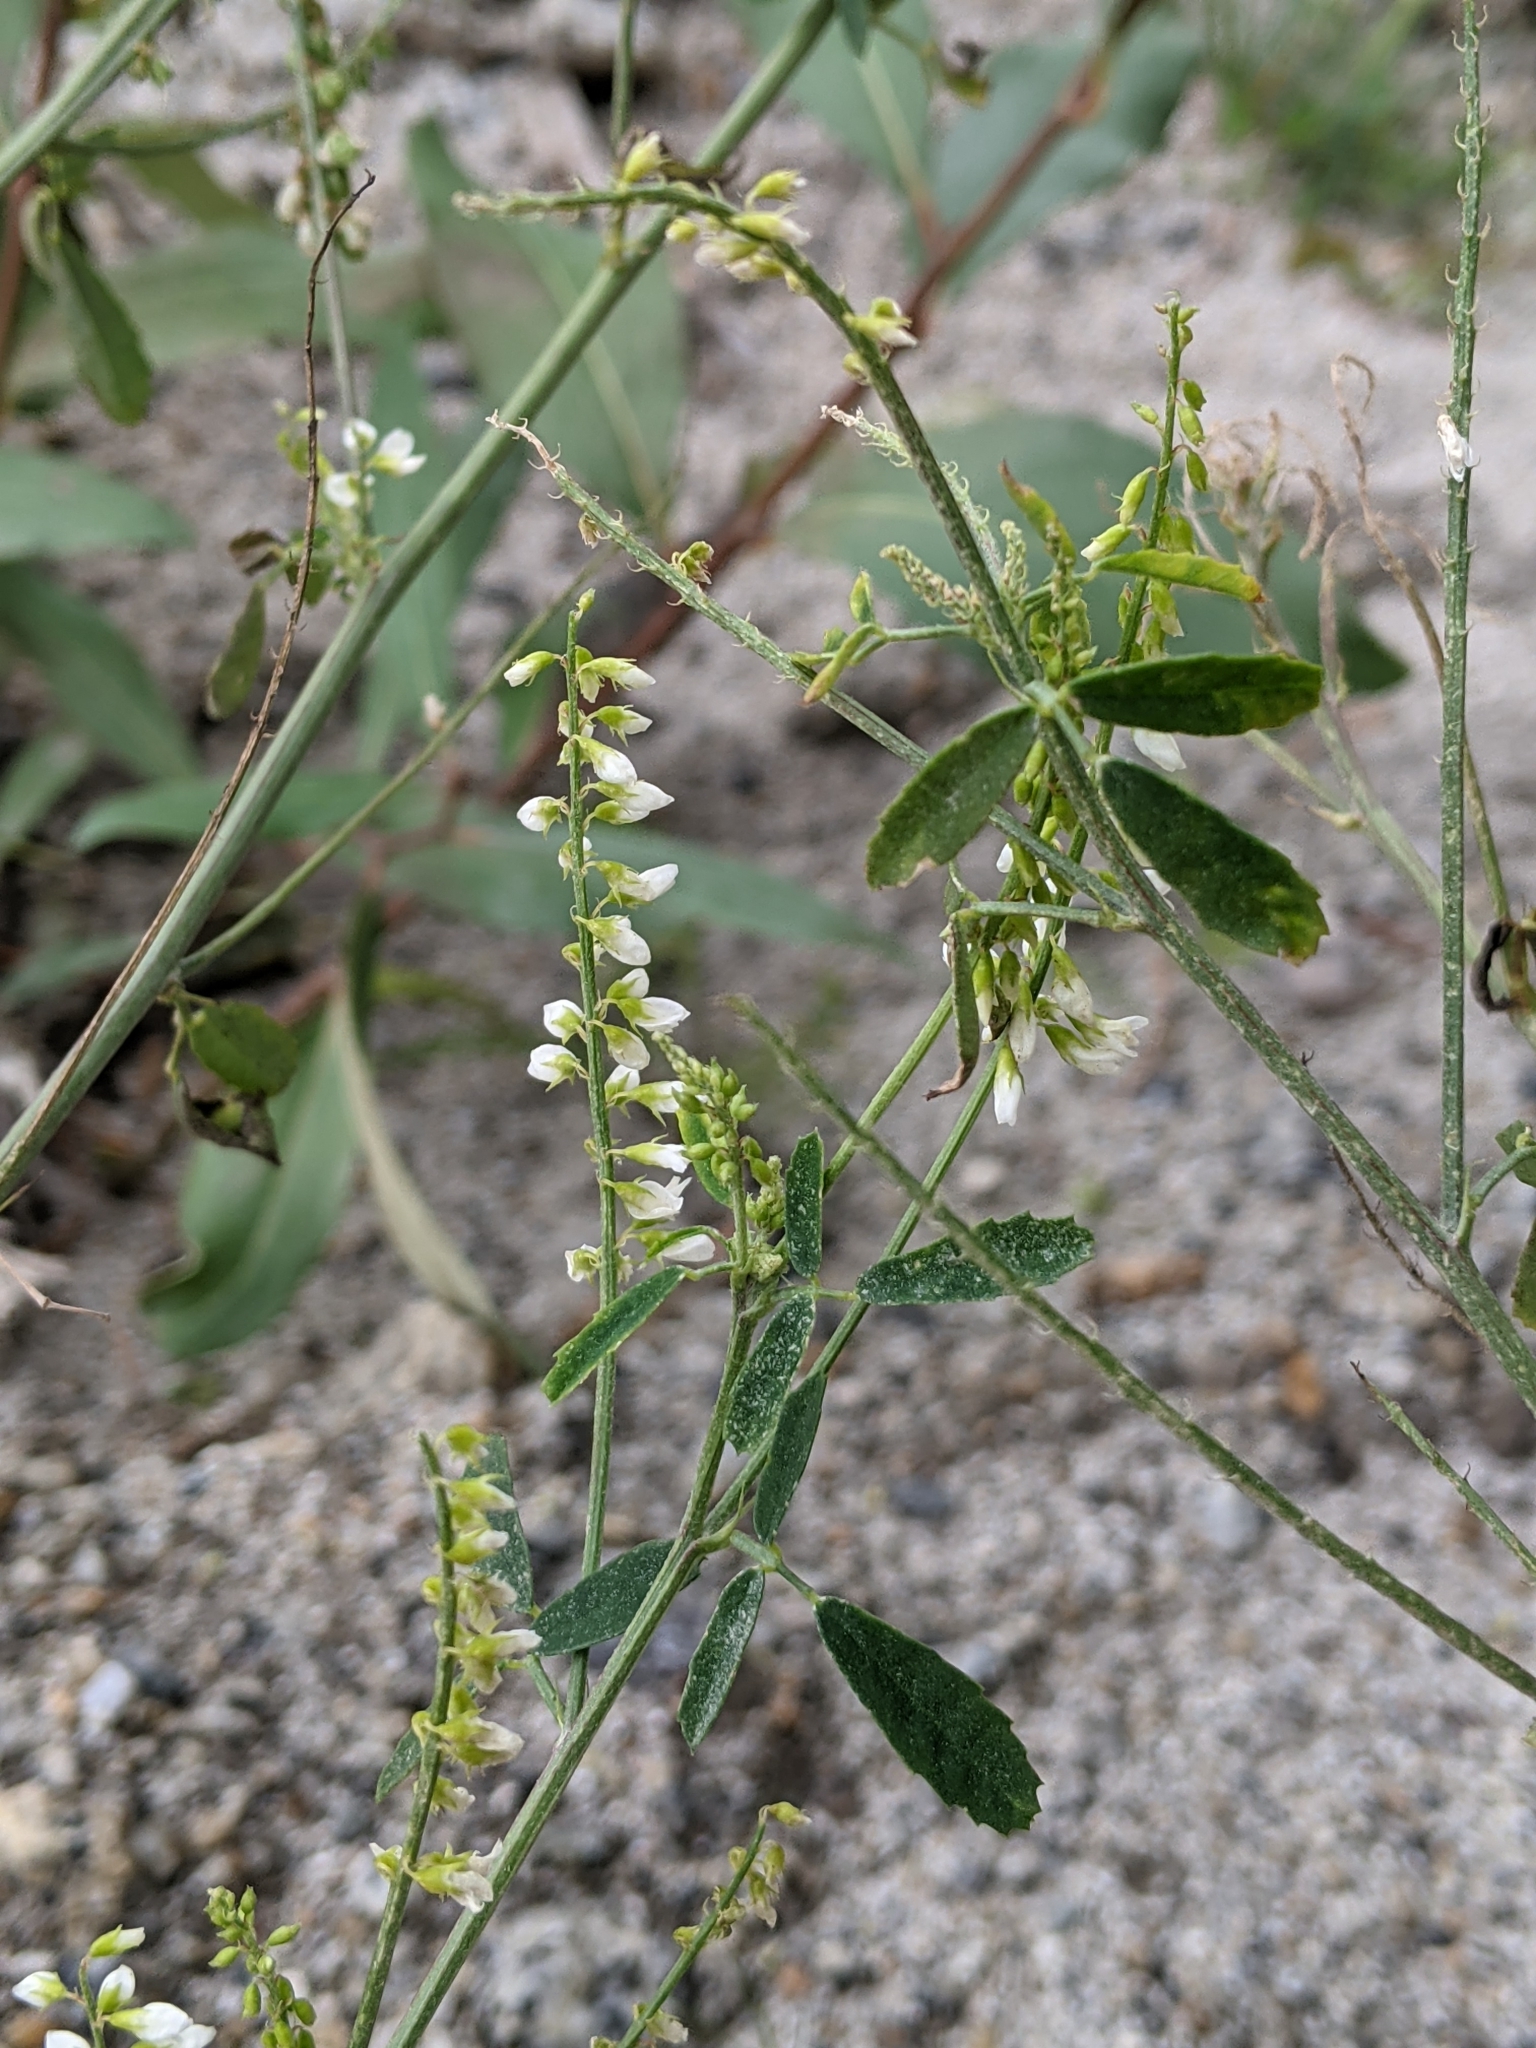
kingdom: Plantae
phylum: Tracheophyta
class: Magnoliopsida
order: Fabales
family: Fabaceae
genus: Melilotus
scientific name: Melilotus albus
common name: White melilot
